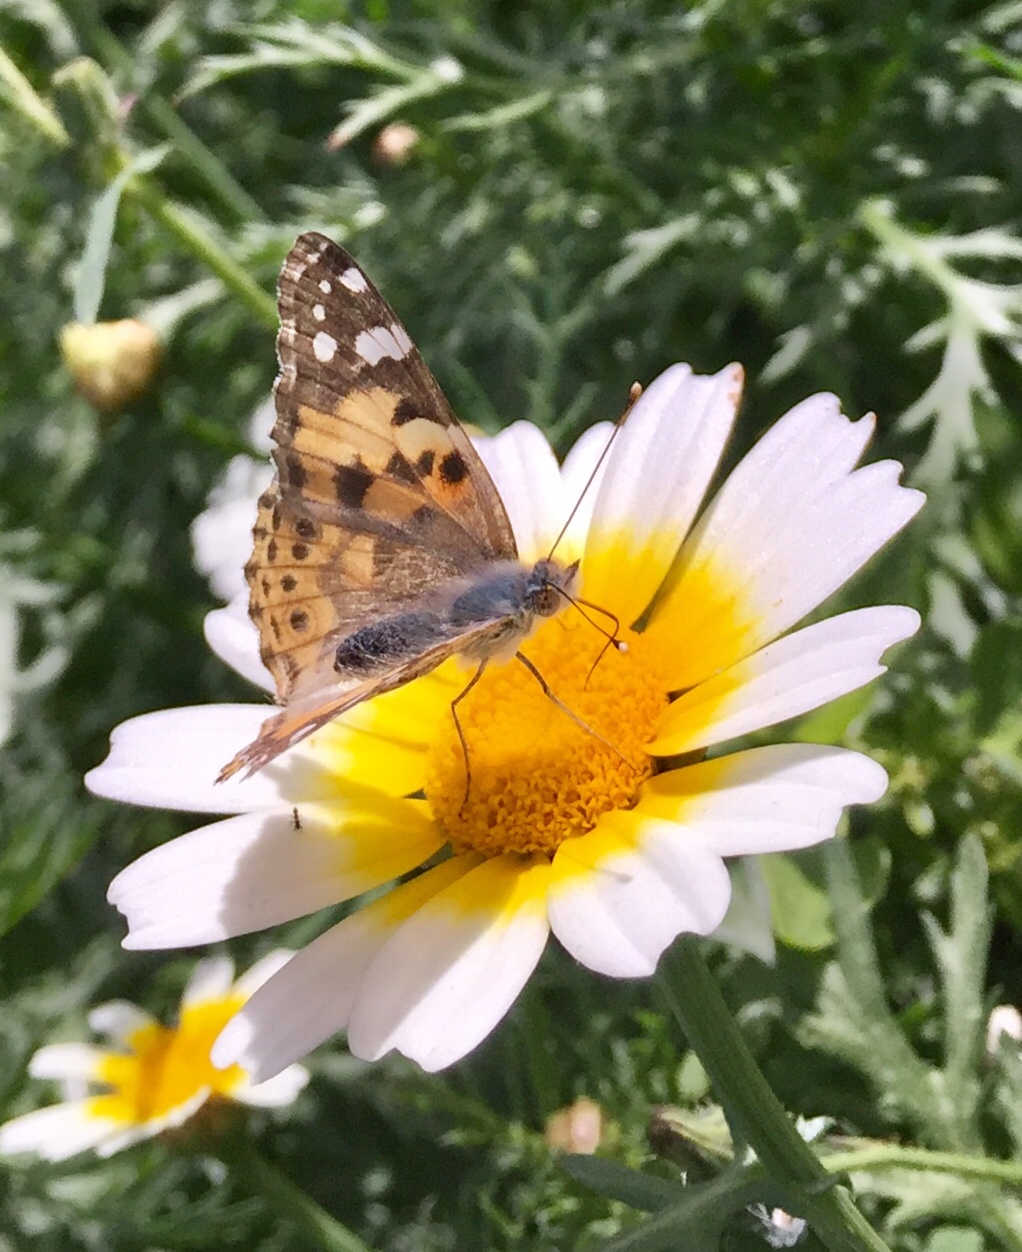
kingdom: Animalia
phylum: Arthropoda
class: Insecta
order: Lepidoptera
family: Nymphalidae
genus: Vanessa
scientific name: Vanessa cardui
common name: Painted lady
